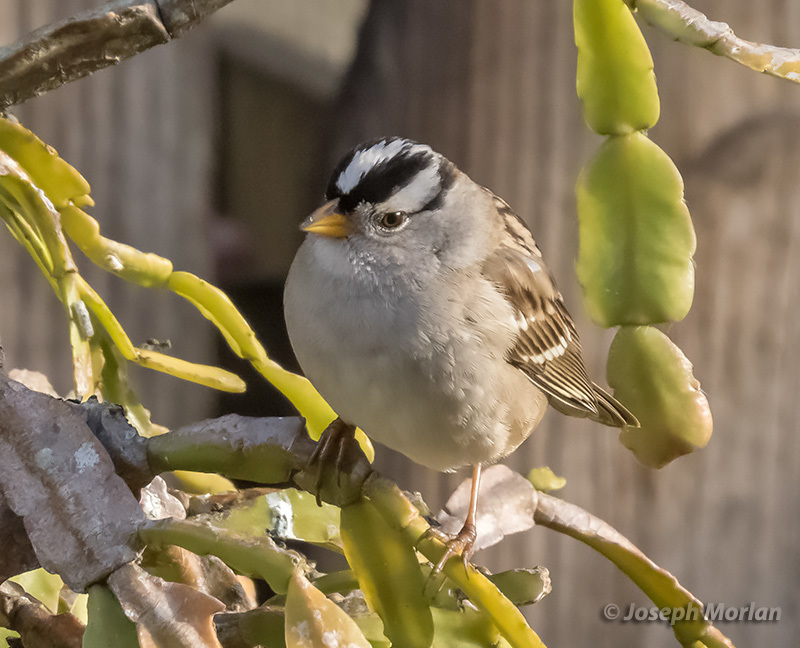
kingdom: Animalia
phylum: Chordata
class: Aves
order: Passeriformes
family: Passerellidae
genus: Zonotrichia
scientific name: Zonotrichia leucophrys
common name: White-crowned sparrow
